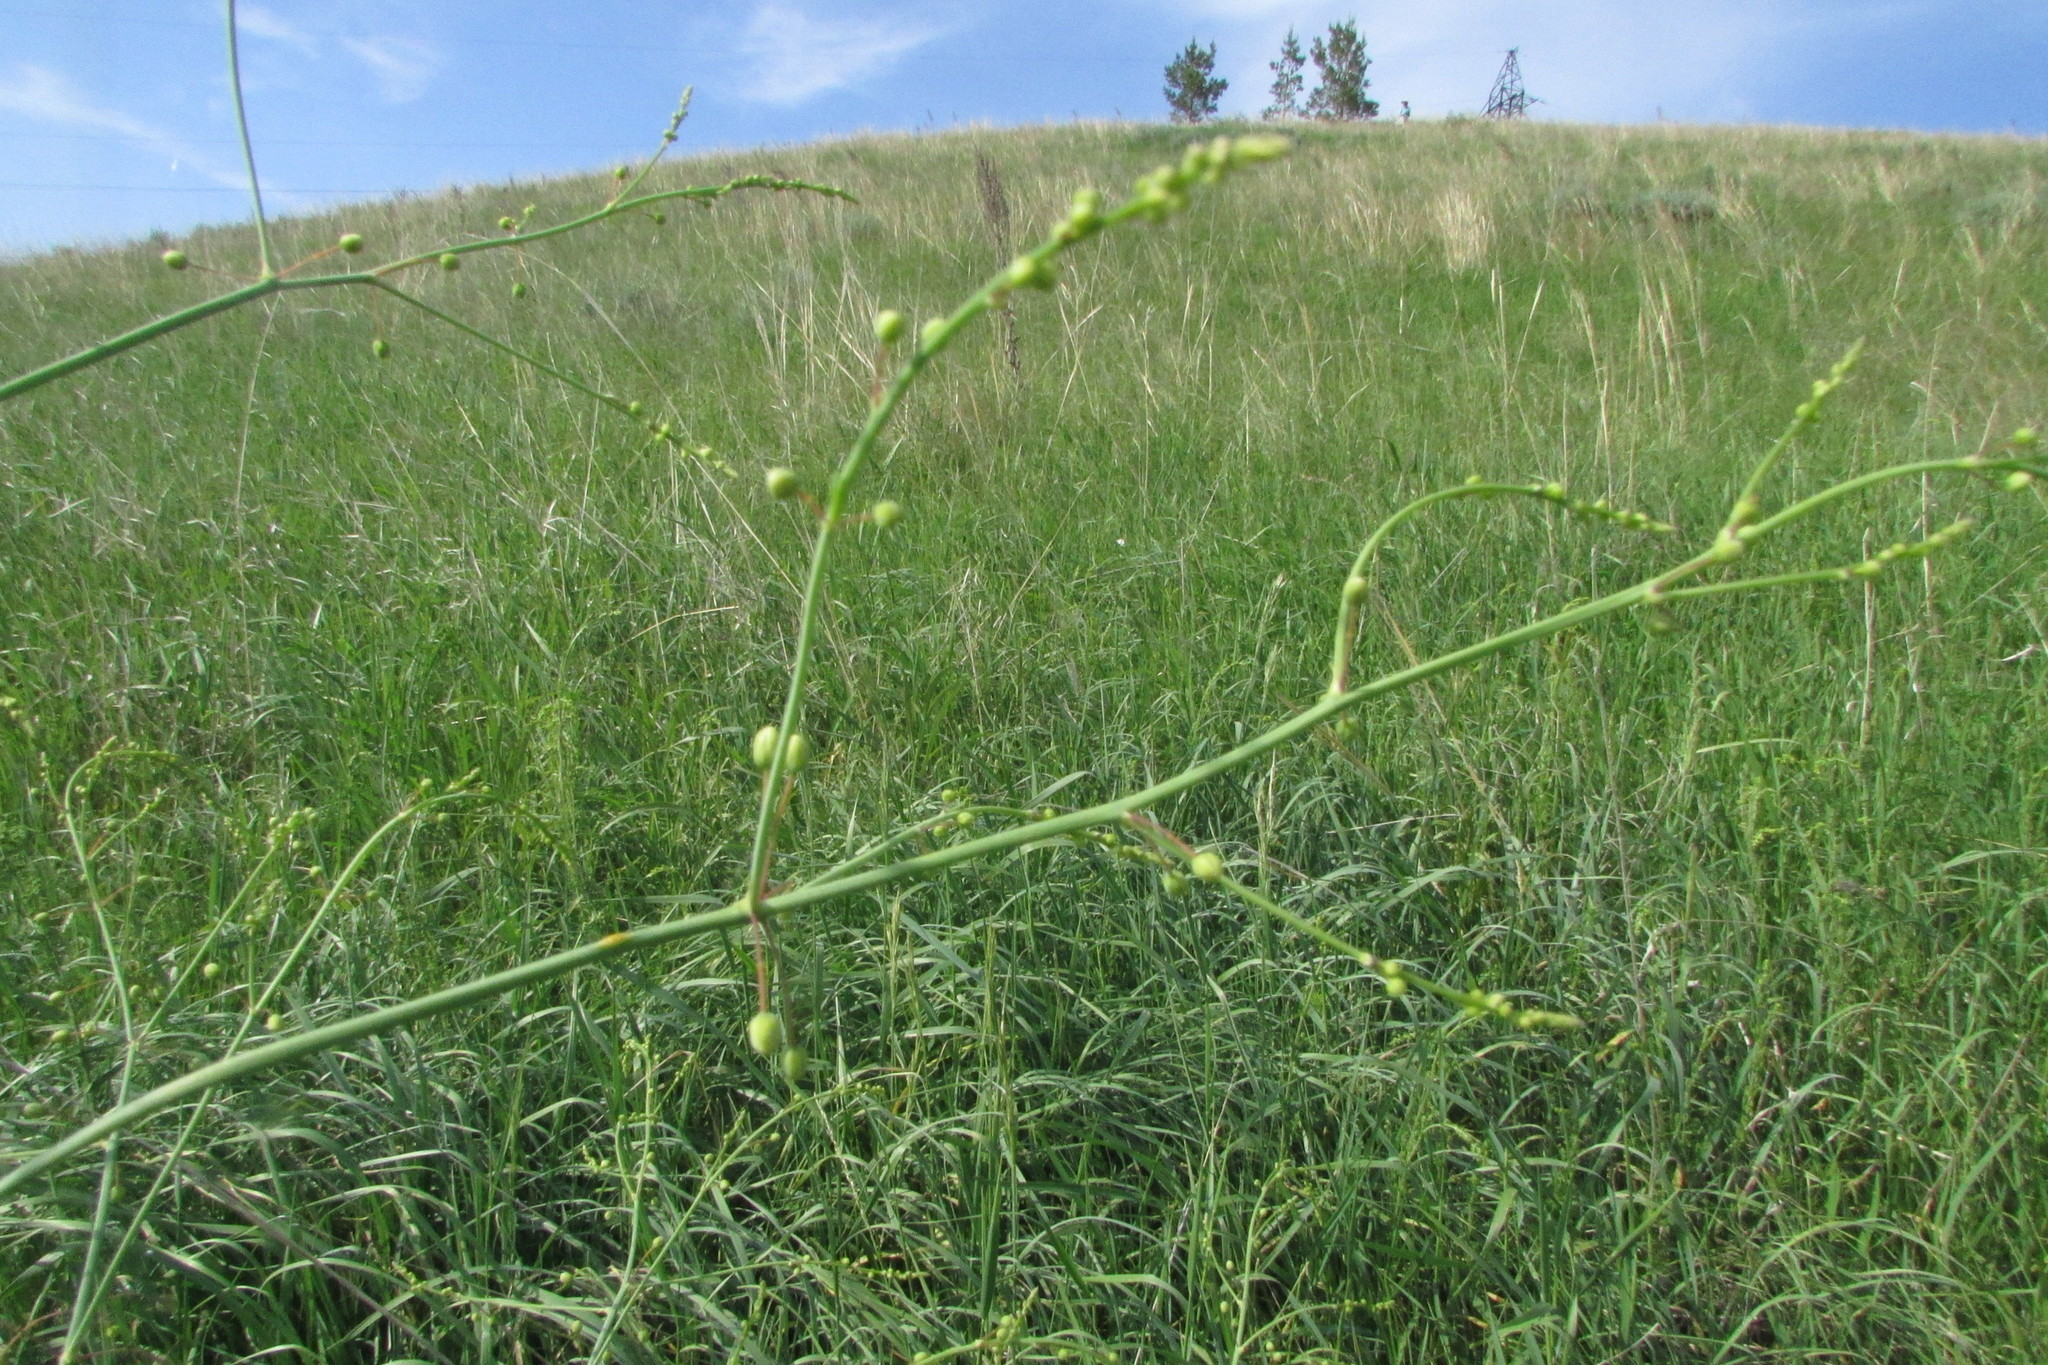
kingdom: Plantae
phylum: Tracheophyta
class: Liliopsida
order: Asparagales
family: Asparagaceae
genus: Asparagus
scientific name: Asparagus officinalis
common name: Garden asparagus
